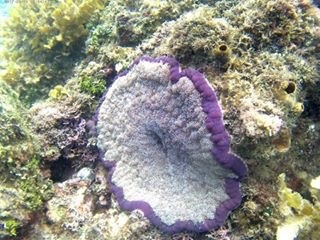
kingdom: Animalia
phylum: Cnidaria
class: Anthozoa
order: Actiniaria
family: Thalassianthidae
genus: Cryptodendrum
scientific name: Cryptodendrum adhaesivum
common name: Adhesive sea anemone
